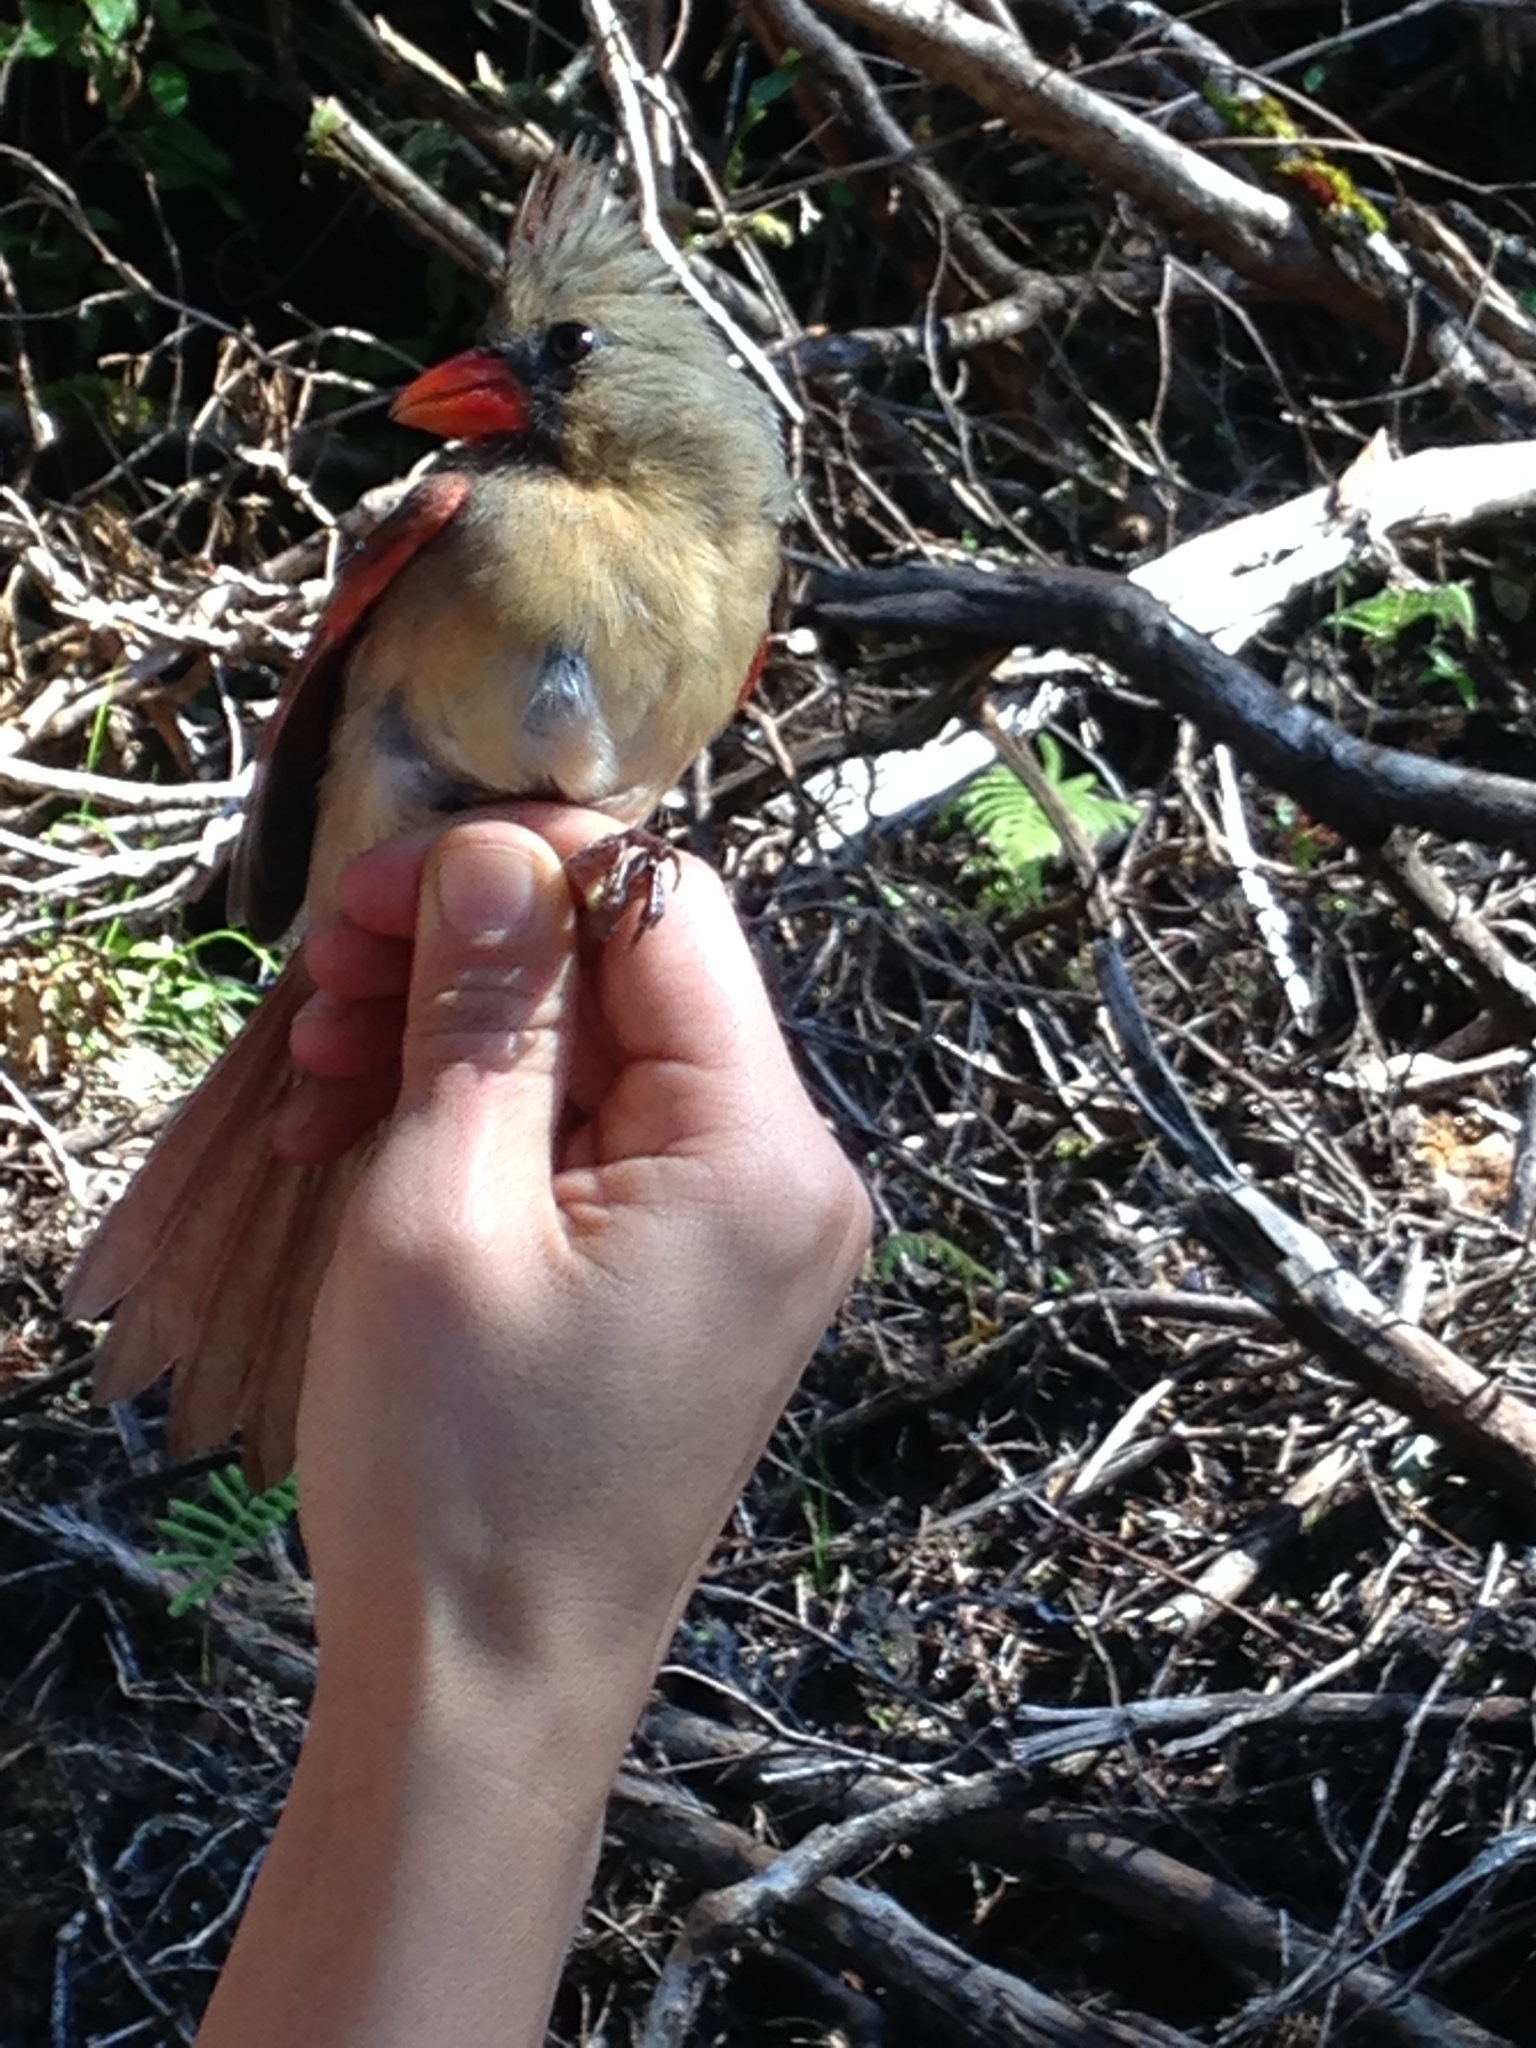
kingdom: Animalia
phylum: Chordata
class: Aves
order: Passeriformes
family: Cardinalidae
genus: Cardinalis
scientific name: Cardinalis cardinalis
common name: Northern cardinal
